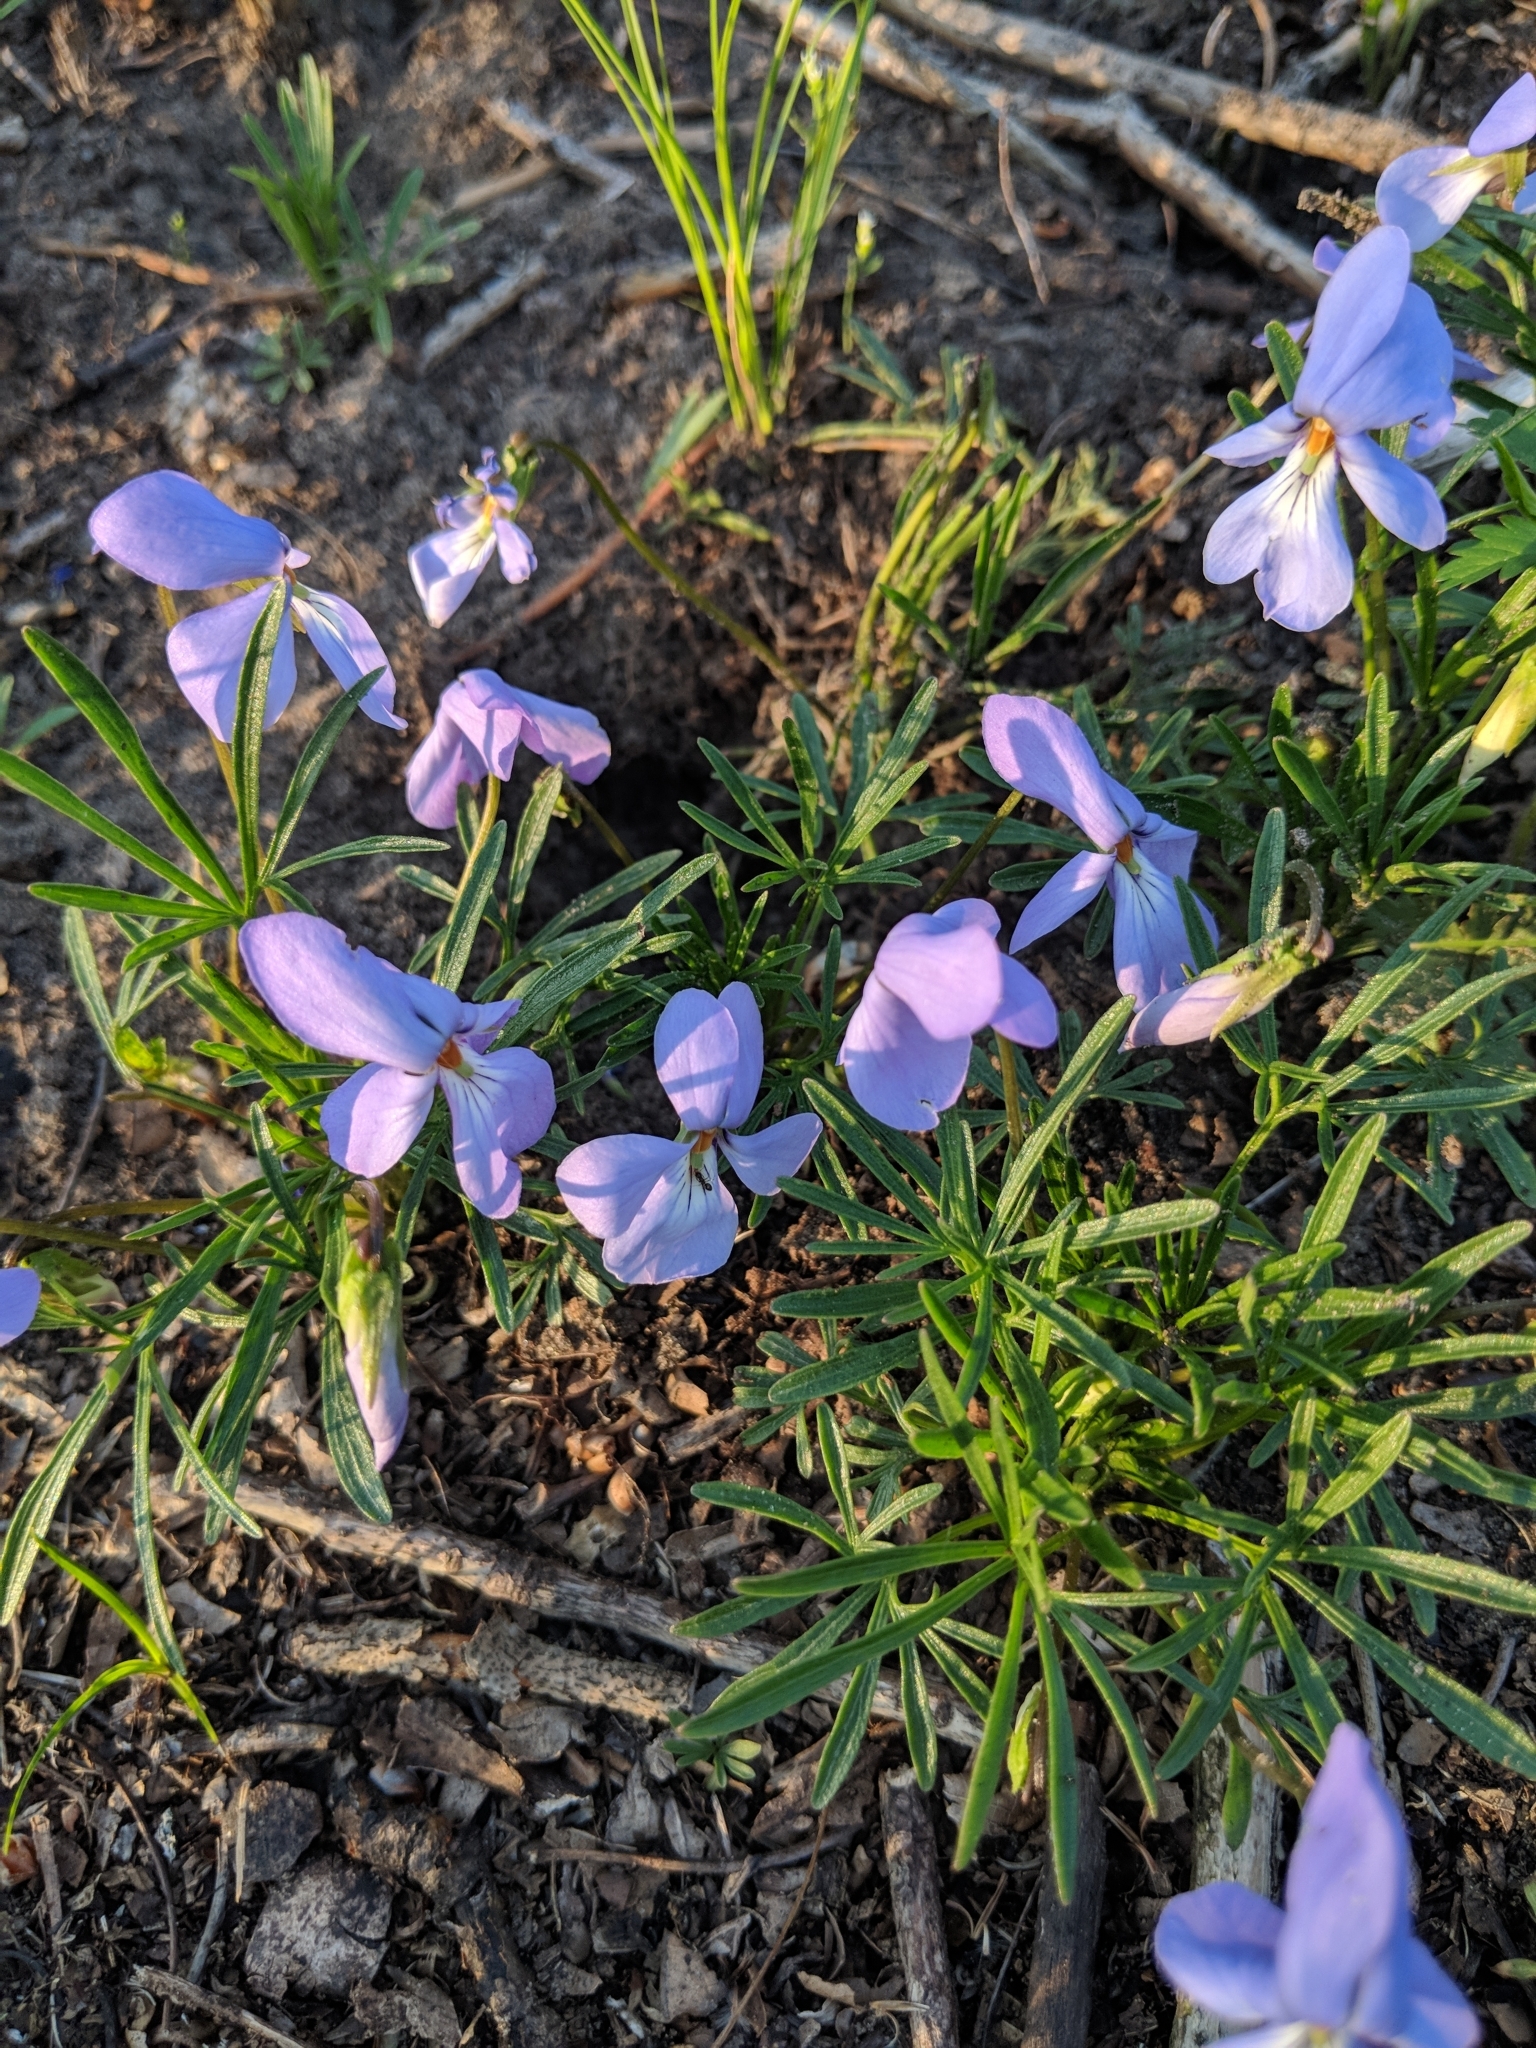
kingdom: Plantae
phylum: Tracheophyta
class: Magnoliopsida
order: Malpighiales
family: Violaceae
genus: Viola
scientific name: Viola pedata
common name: Pansy violet
